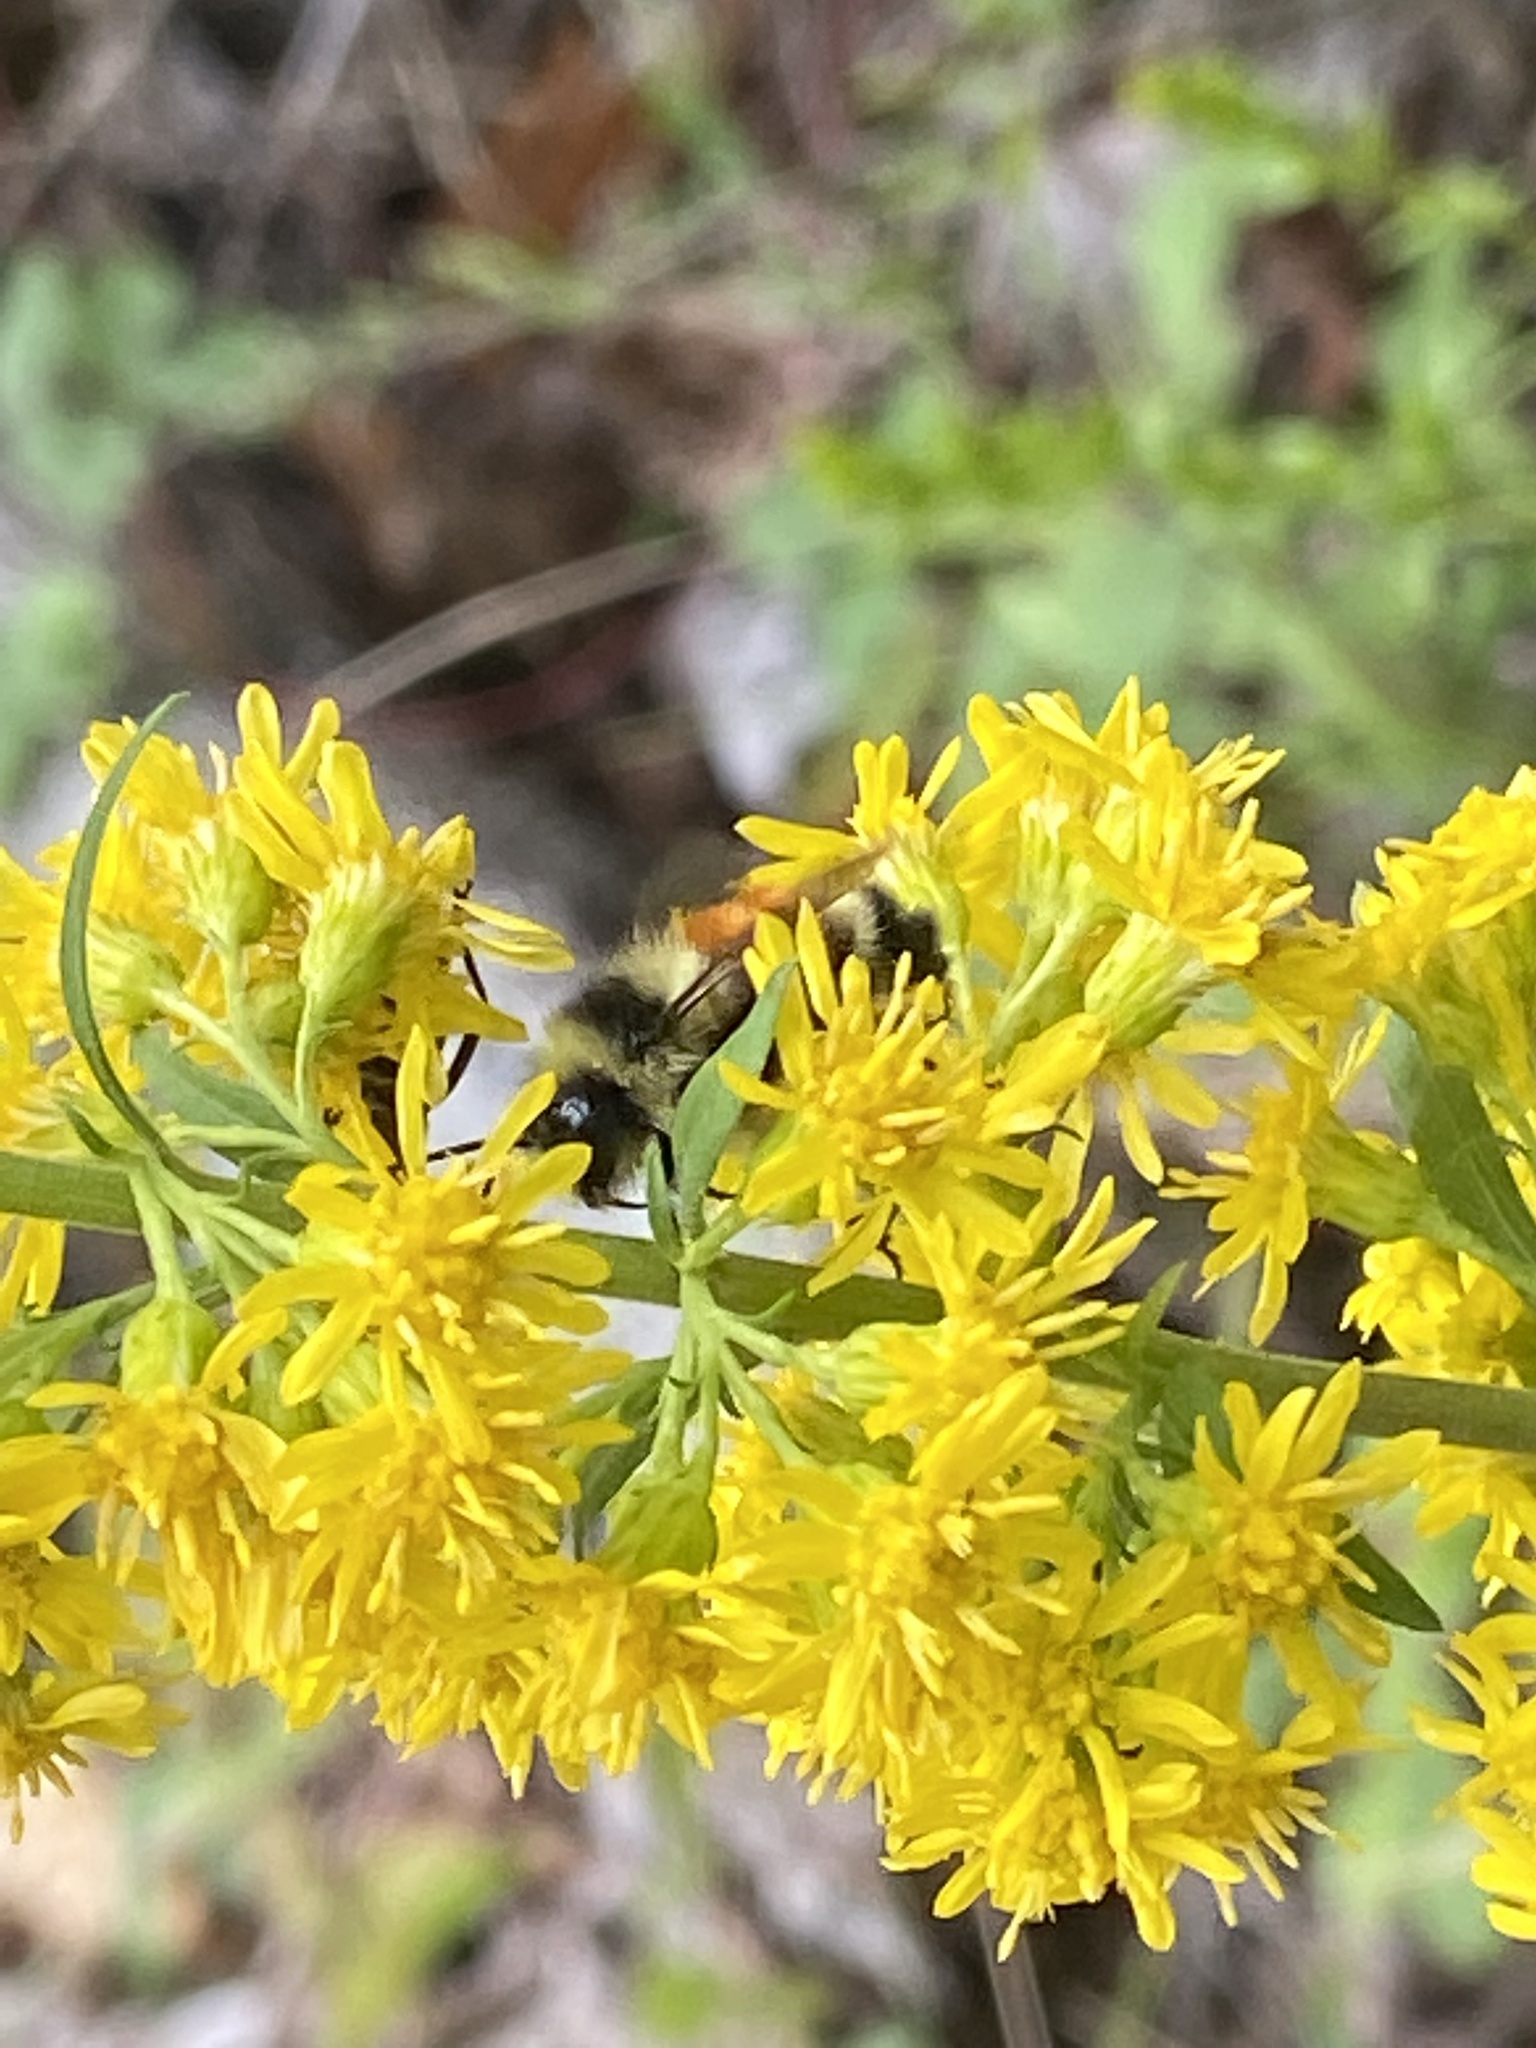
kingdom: Animalia
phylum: Arthropoda
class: Insecta
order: Hymenoptera
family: Apidae
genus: Bombus
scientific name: Bombus ternarius
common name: Tri-colored bumble bee
